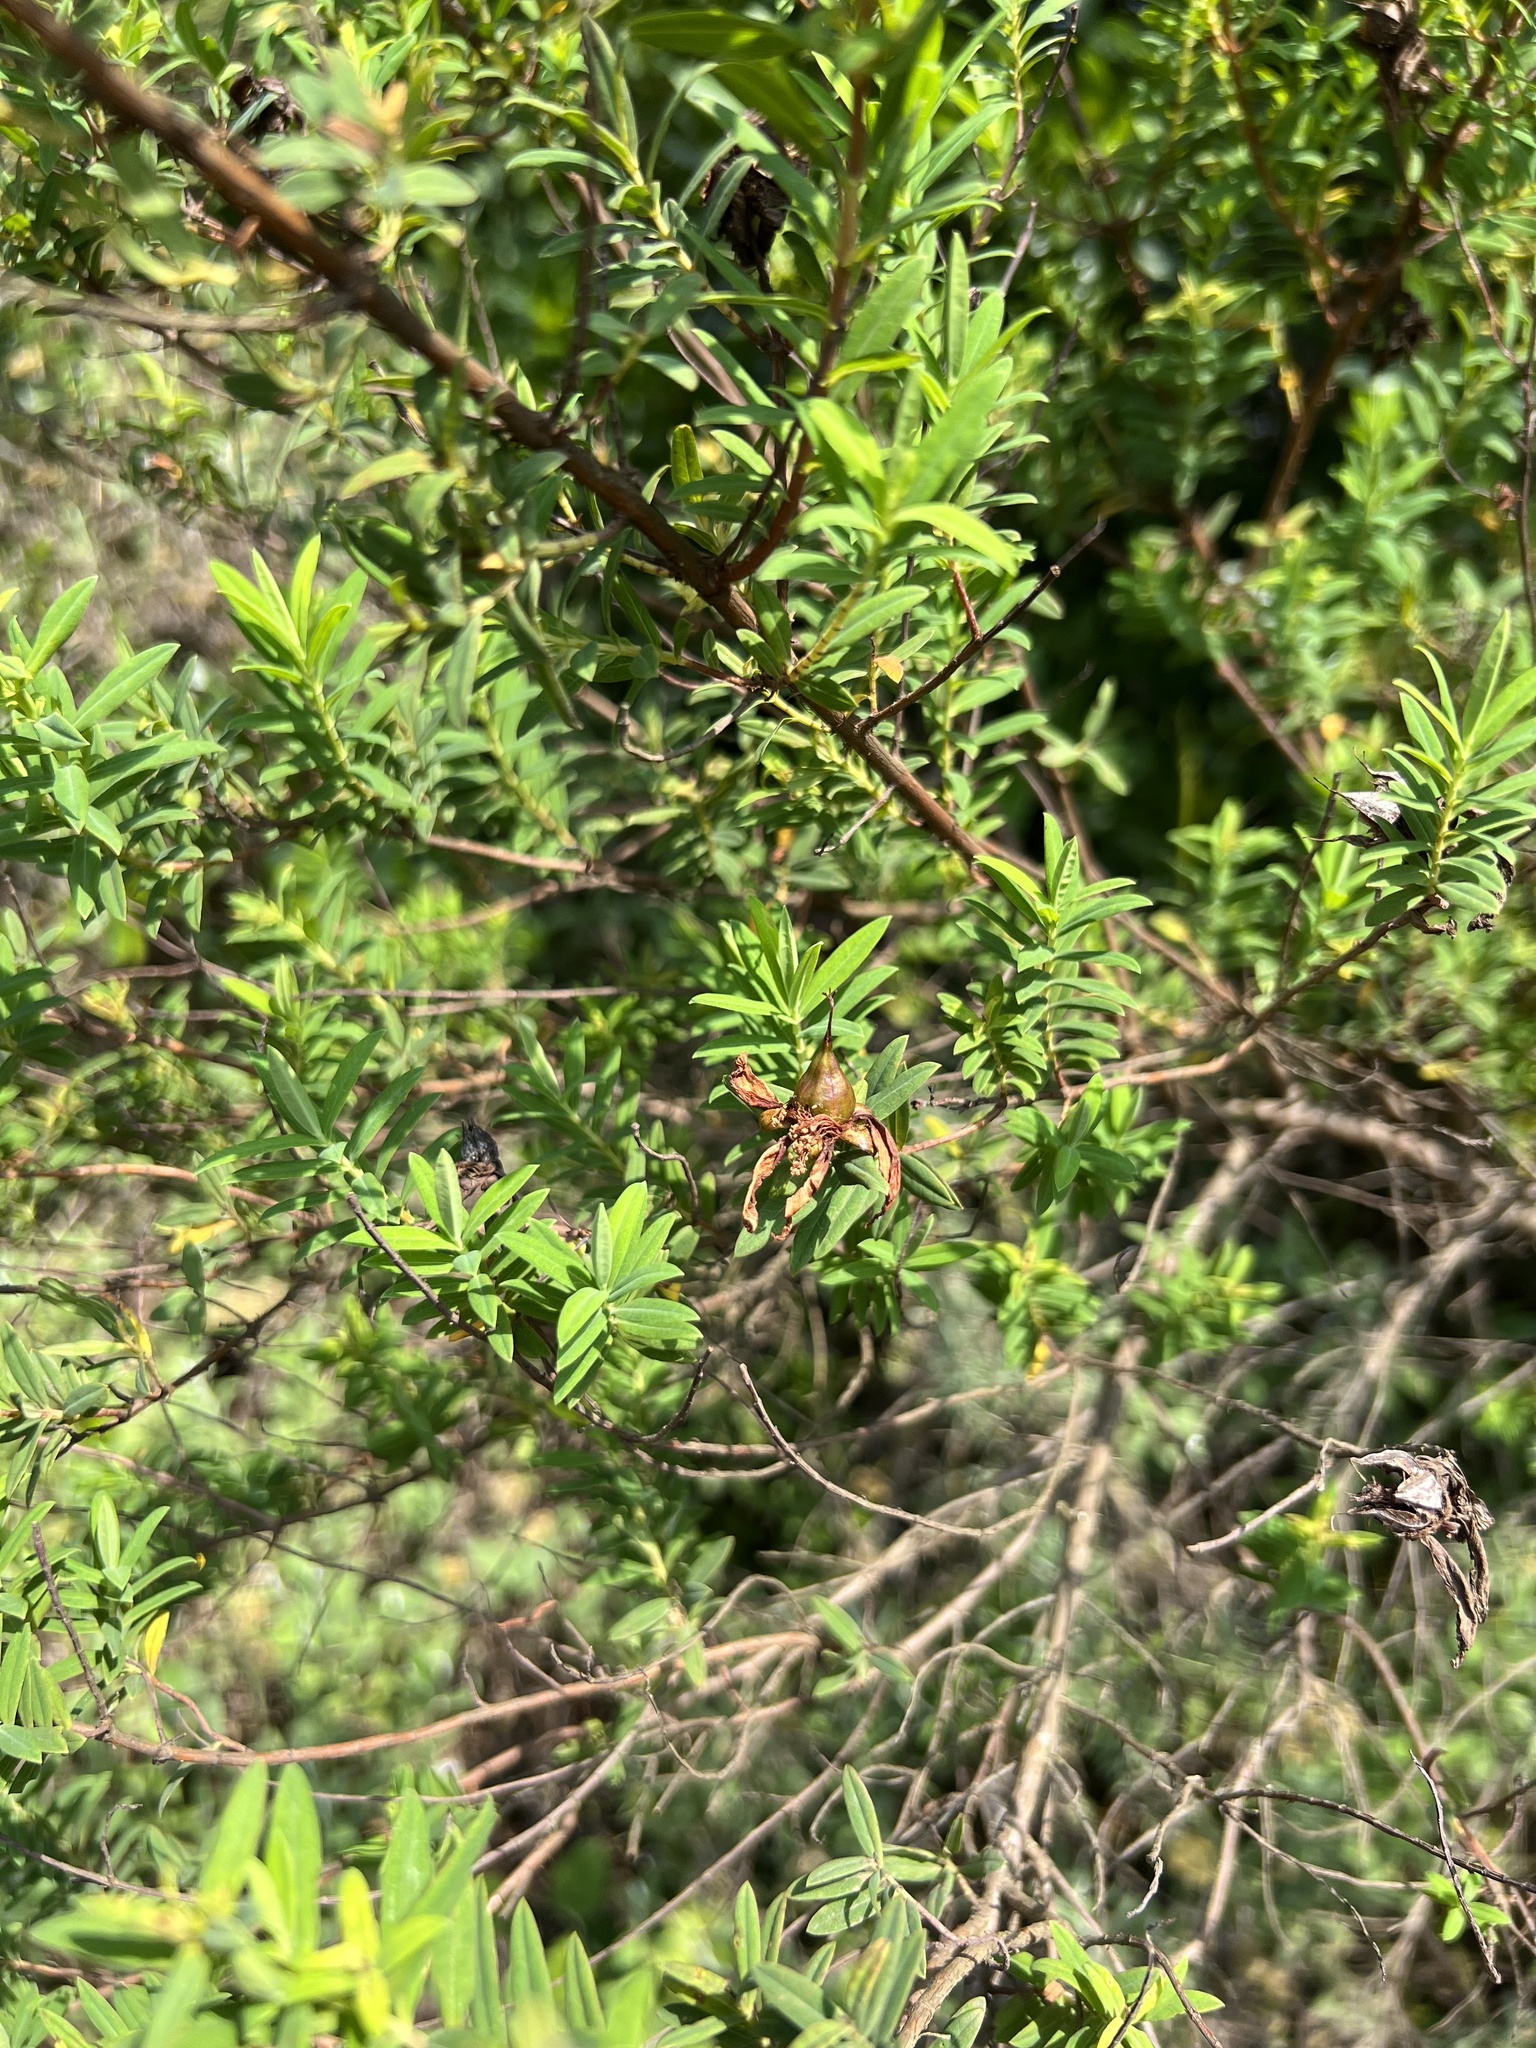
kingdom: Plantae
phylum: Tracheophyta
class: Magnoliopsida
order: Malpighiales
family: Hypericaceae
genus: Hypericum
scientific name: Hypericum revolutum
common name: Curry bush
